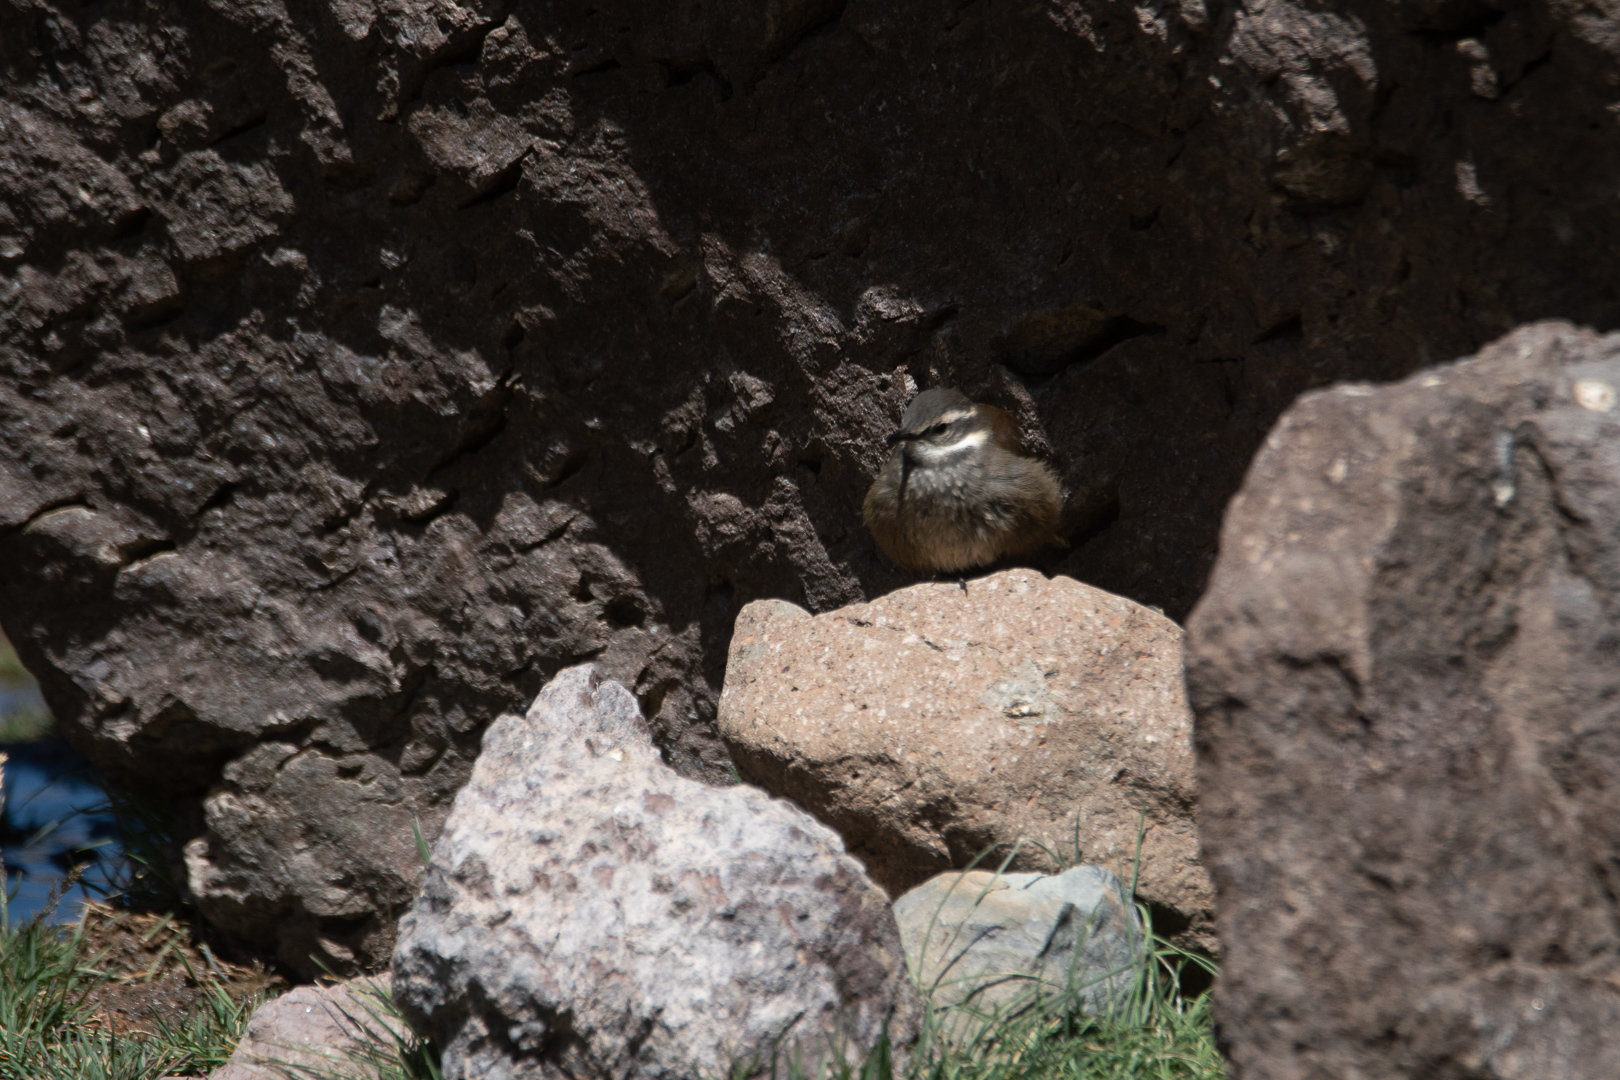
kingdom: Animalia
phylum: Chordata
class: Aves
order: Passeriformes
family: Furnariidae
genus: Cinclodes
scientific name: Cinclodes fuscus
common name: Buff-winged cinclodes
